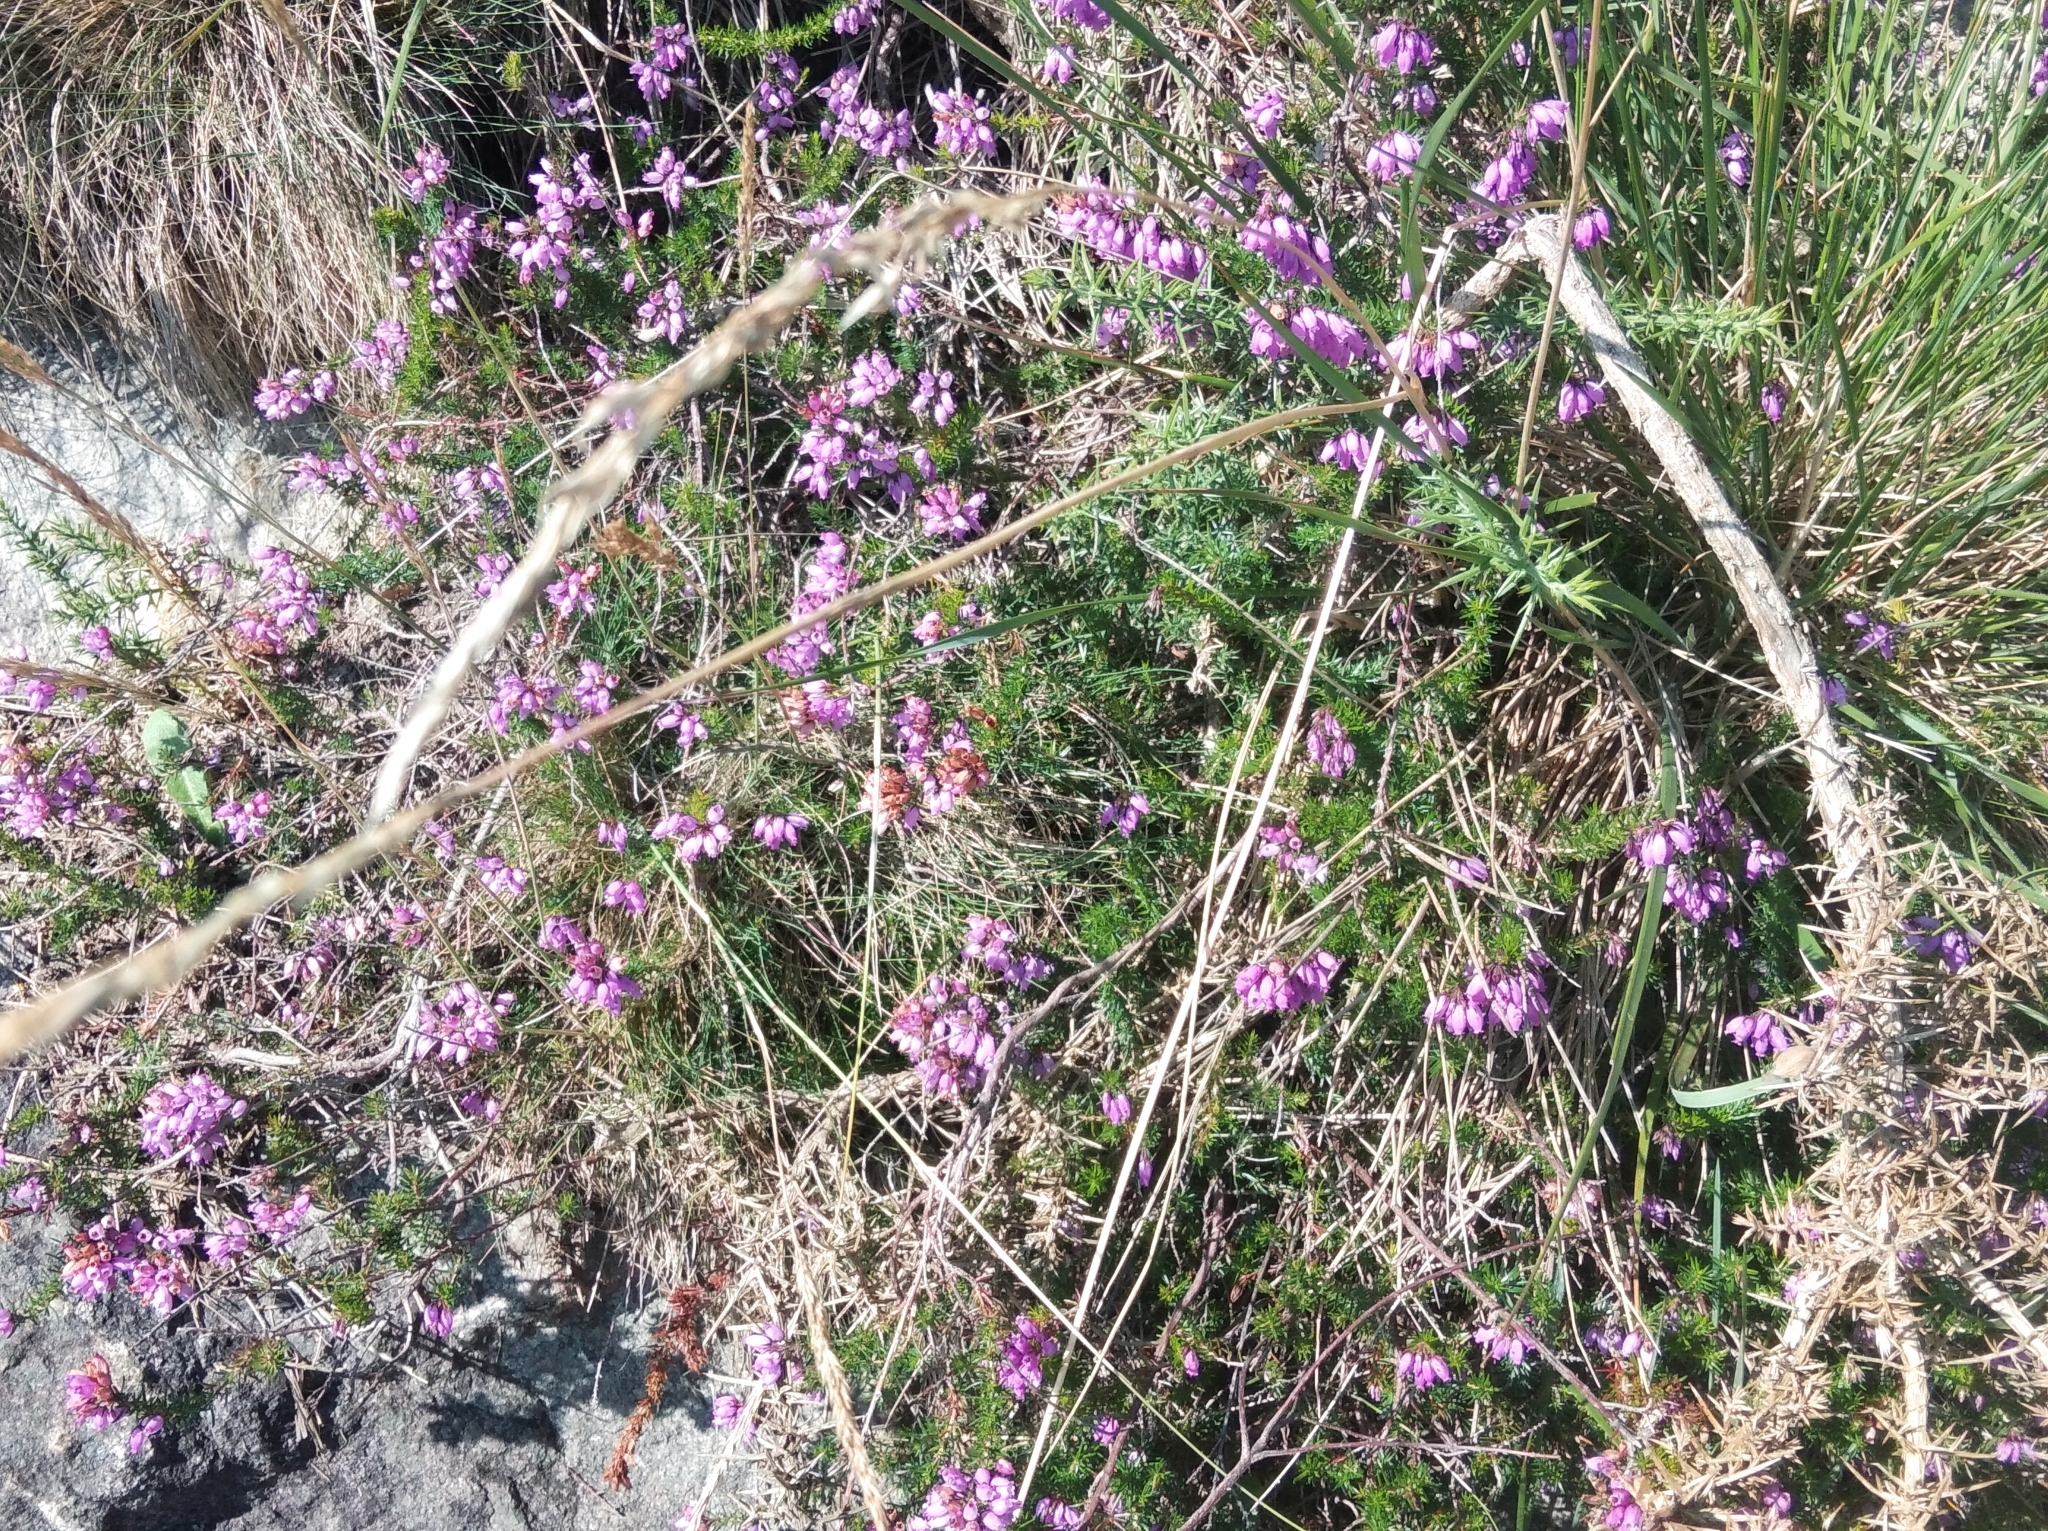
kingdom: Plantae
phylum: Tracheophyta
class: Magnoliopsida
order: Ericales
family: Ericaceae
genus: Erica
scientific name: Erica cinerea
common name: Bell heather
